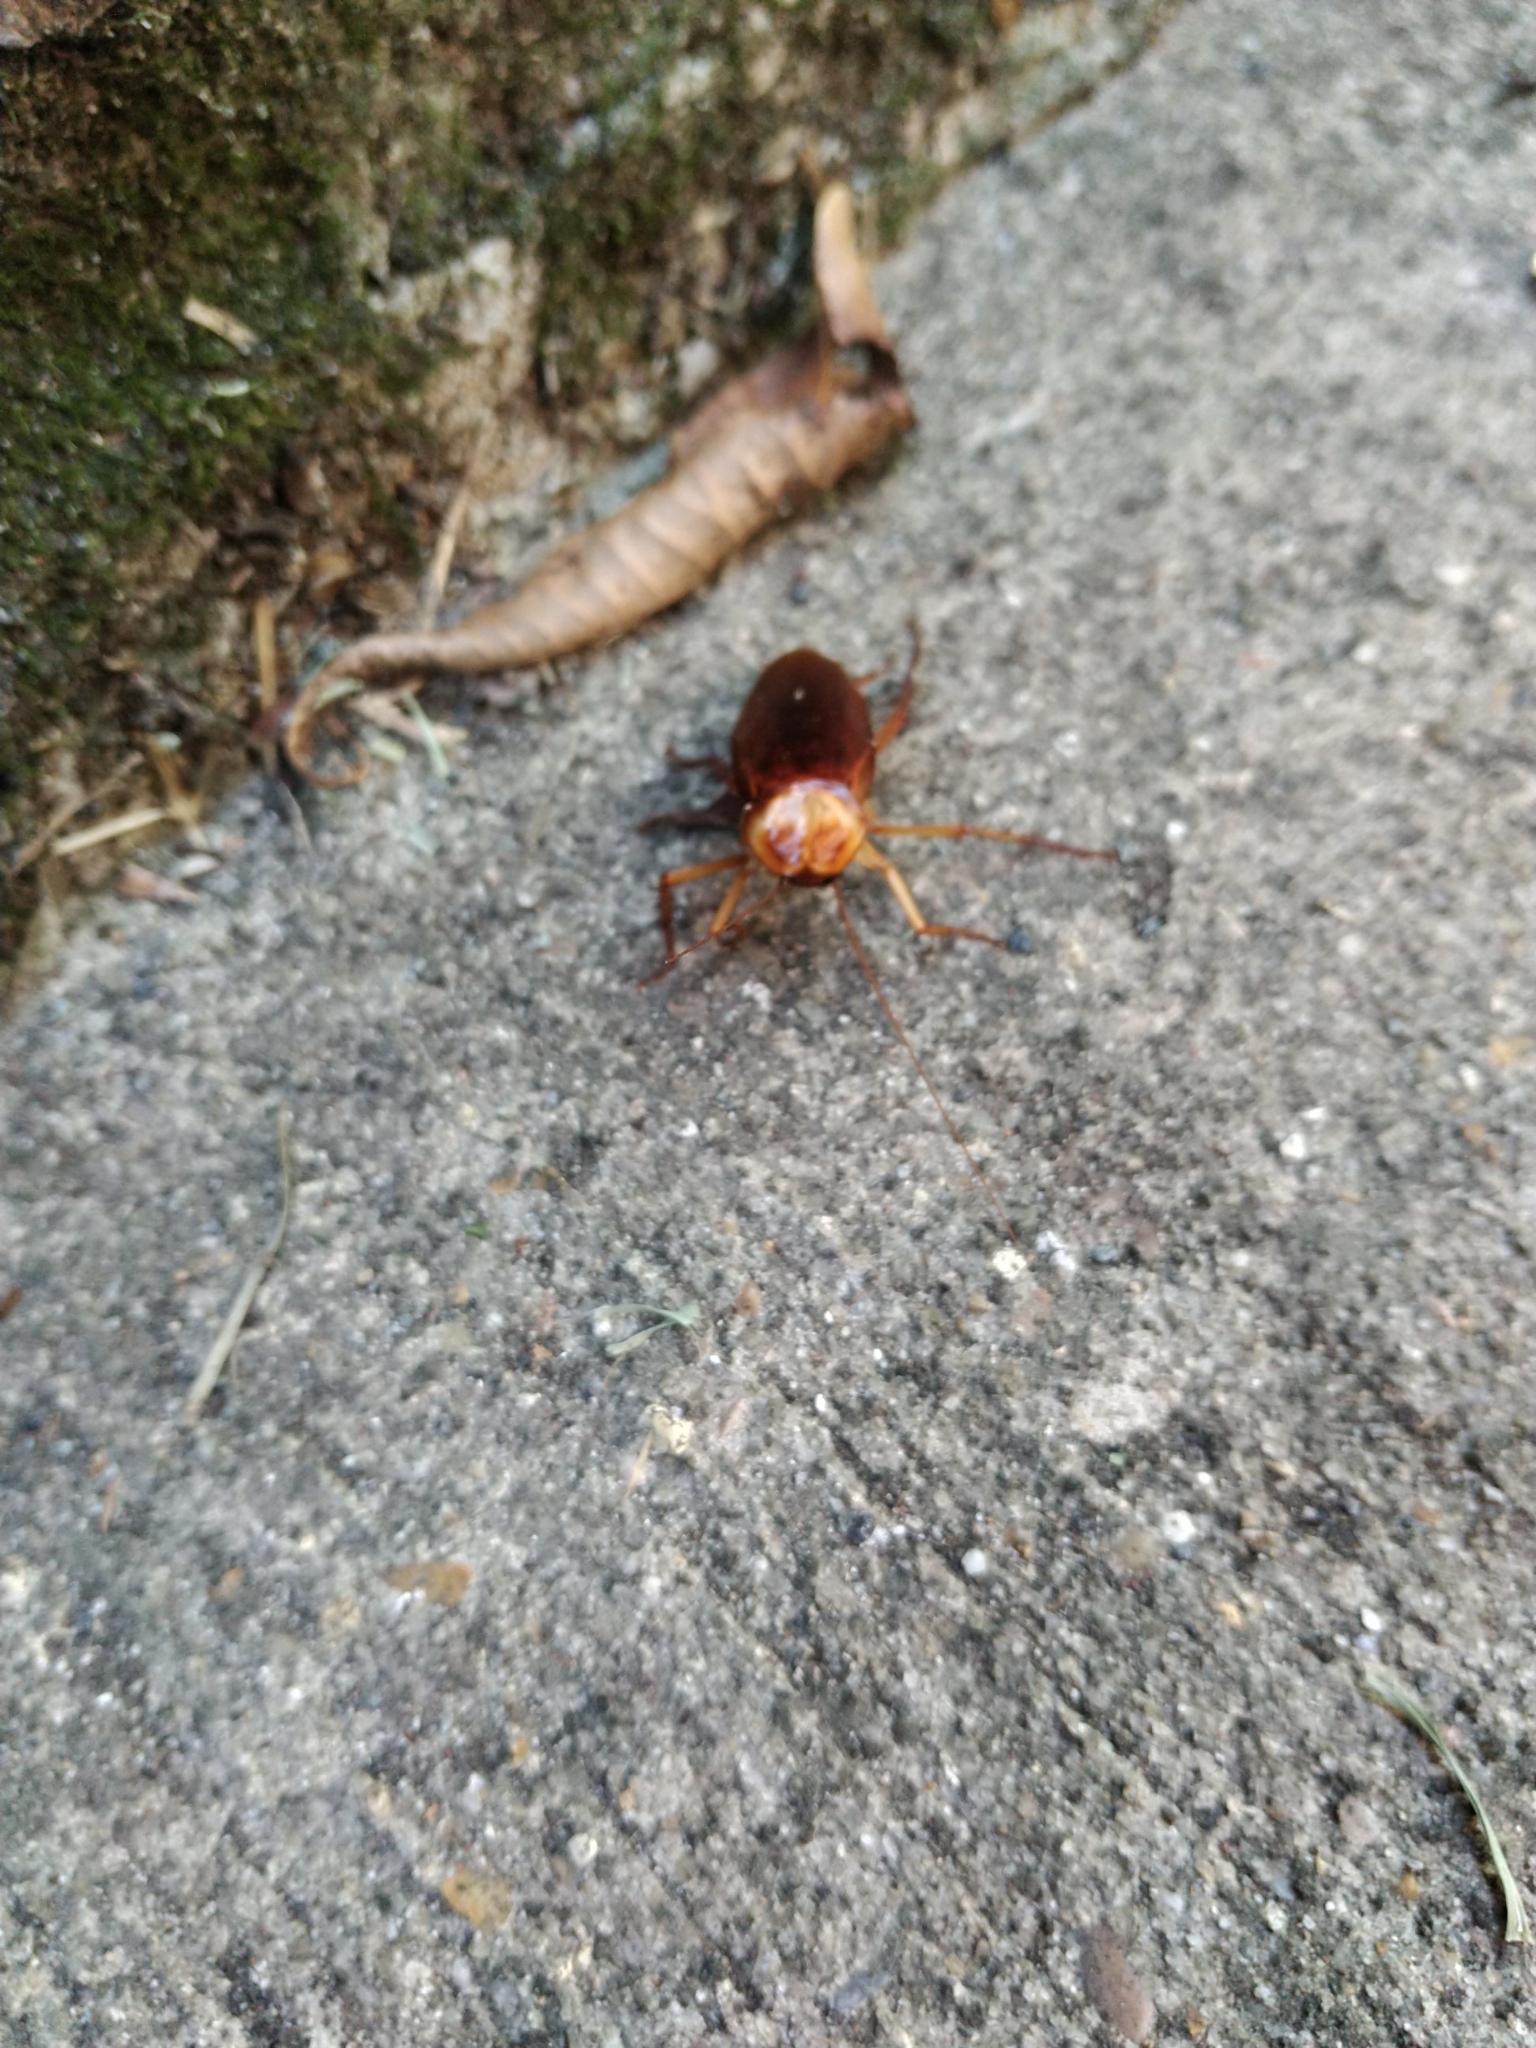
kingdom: Animalia
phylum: Arthropoda
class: Insecta
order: Blattodea
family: Blattidae
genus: Periplaneta
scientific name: Periplaneta americana
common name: American cockroach
